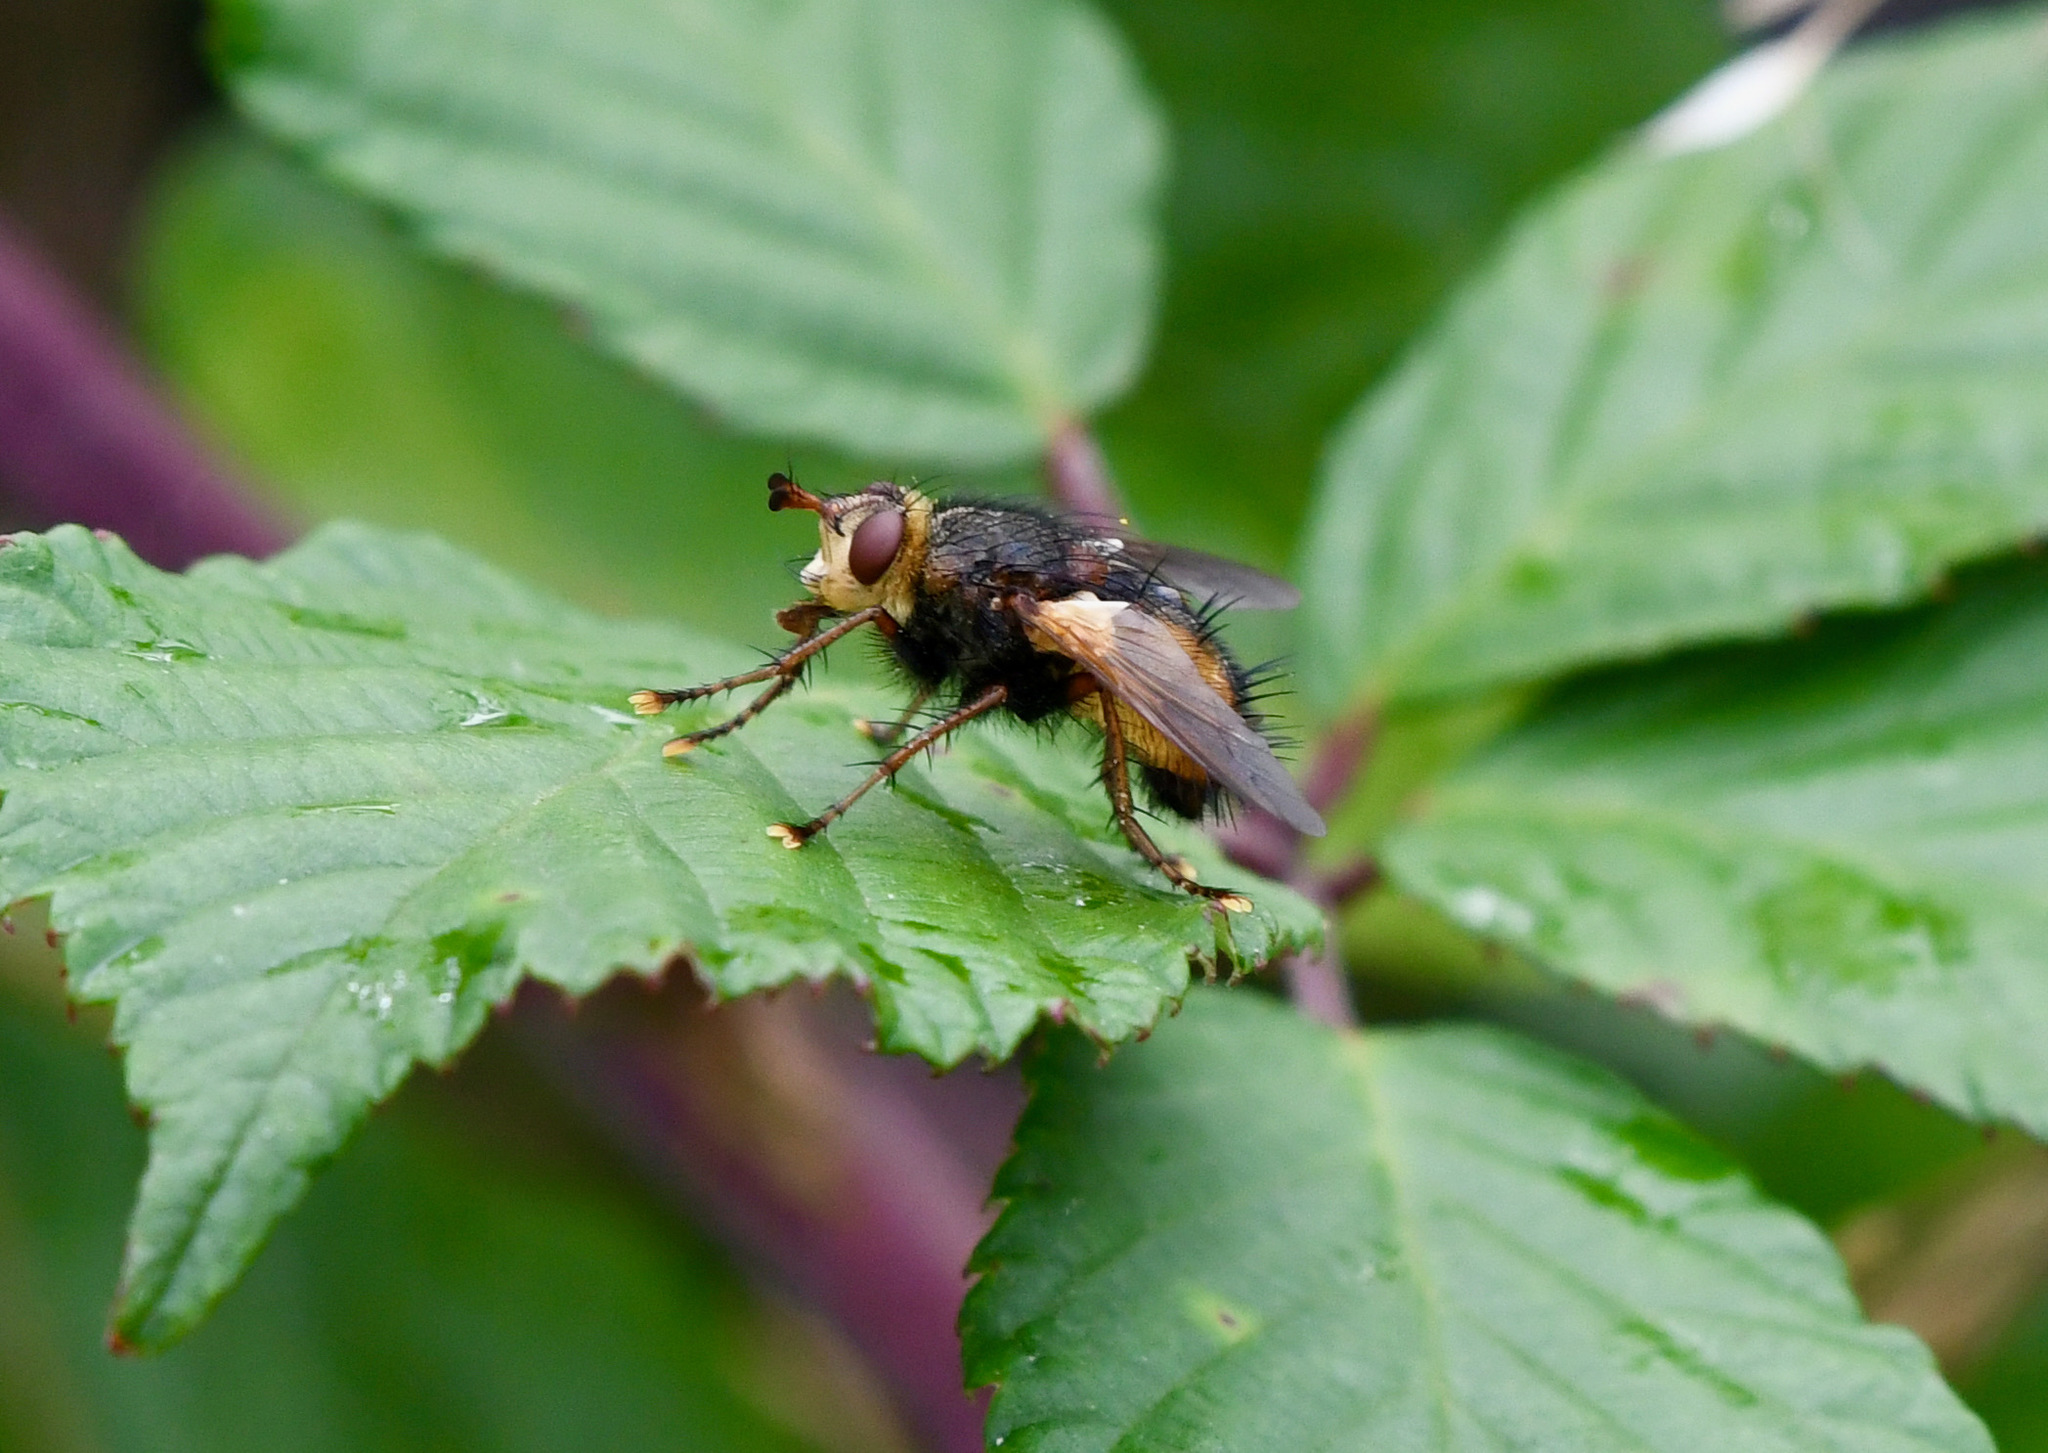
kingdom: Animalia
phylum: Arthropoda
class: Insecta
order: Diptera
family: Tachinidae
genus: Tachina
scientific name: Tachina fera
